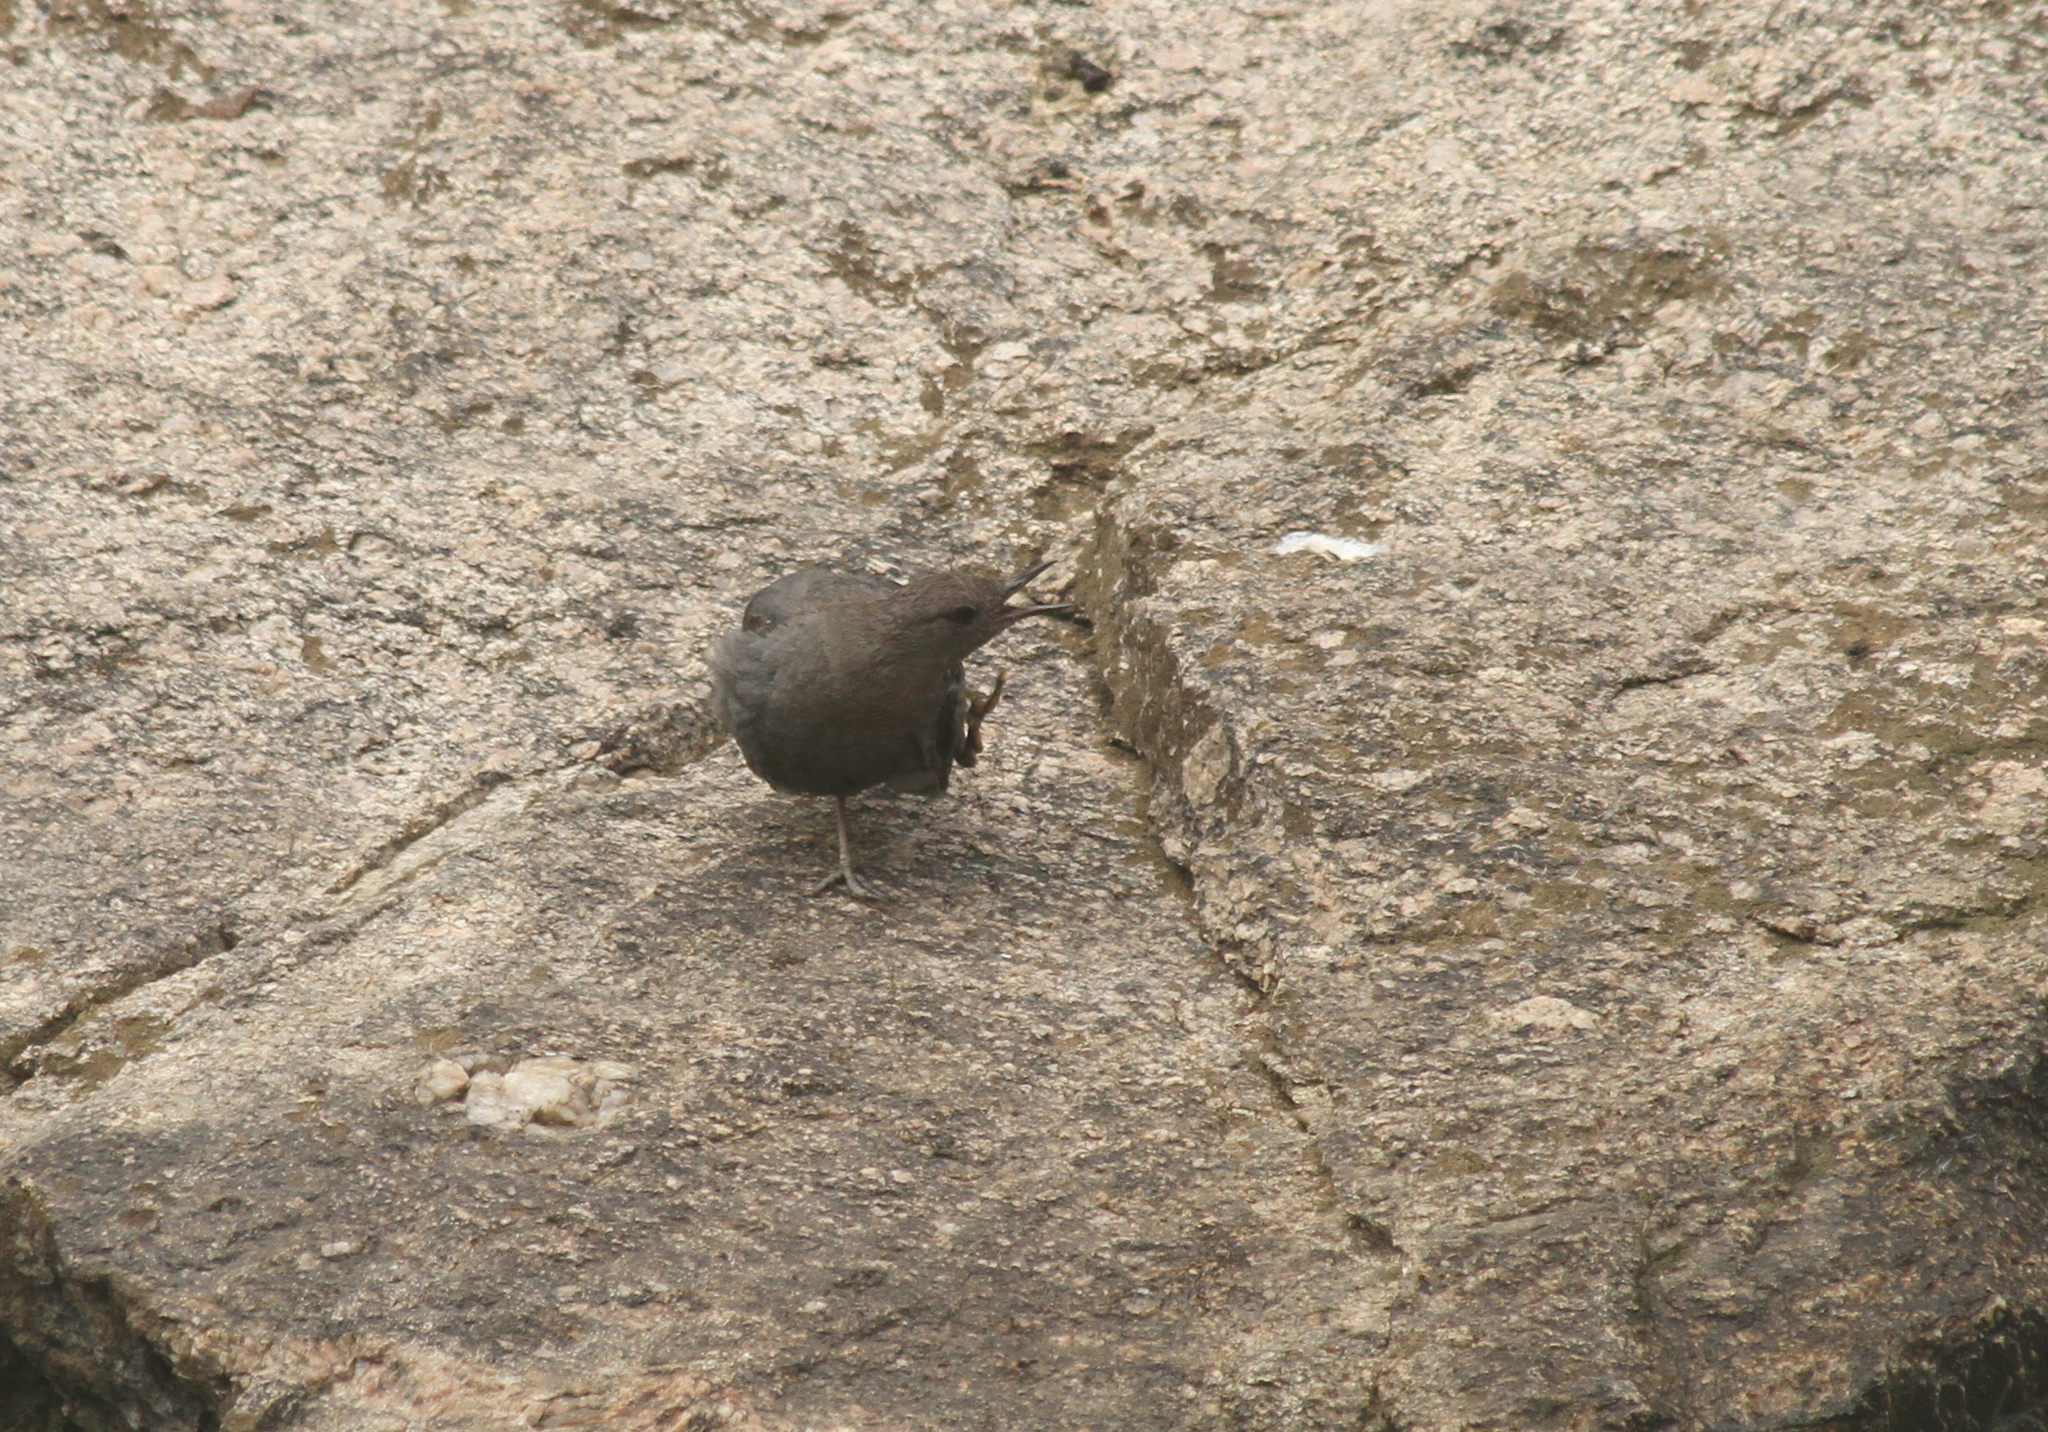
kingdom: Animalia
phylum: Chordata
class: Aves
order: Passeriformes
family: Cinclidae
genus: Cinclus
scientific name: Cinclus mexicanus
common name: American dipper
